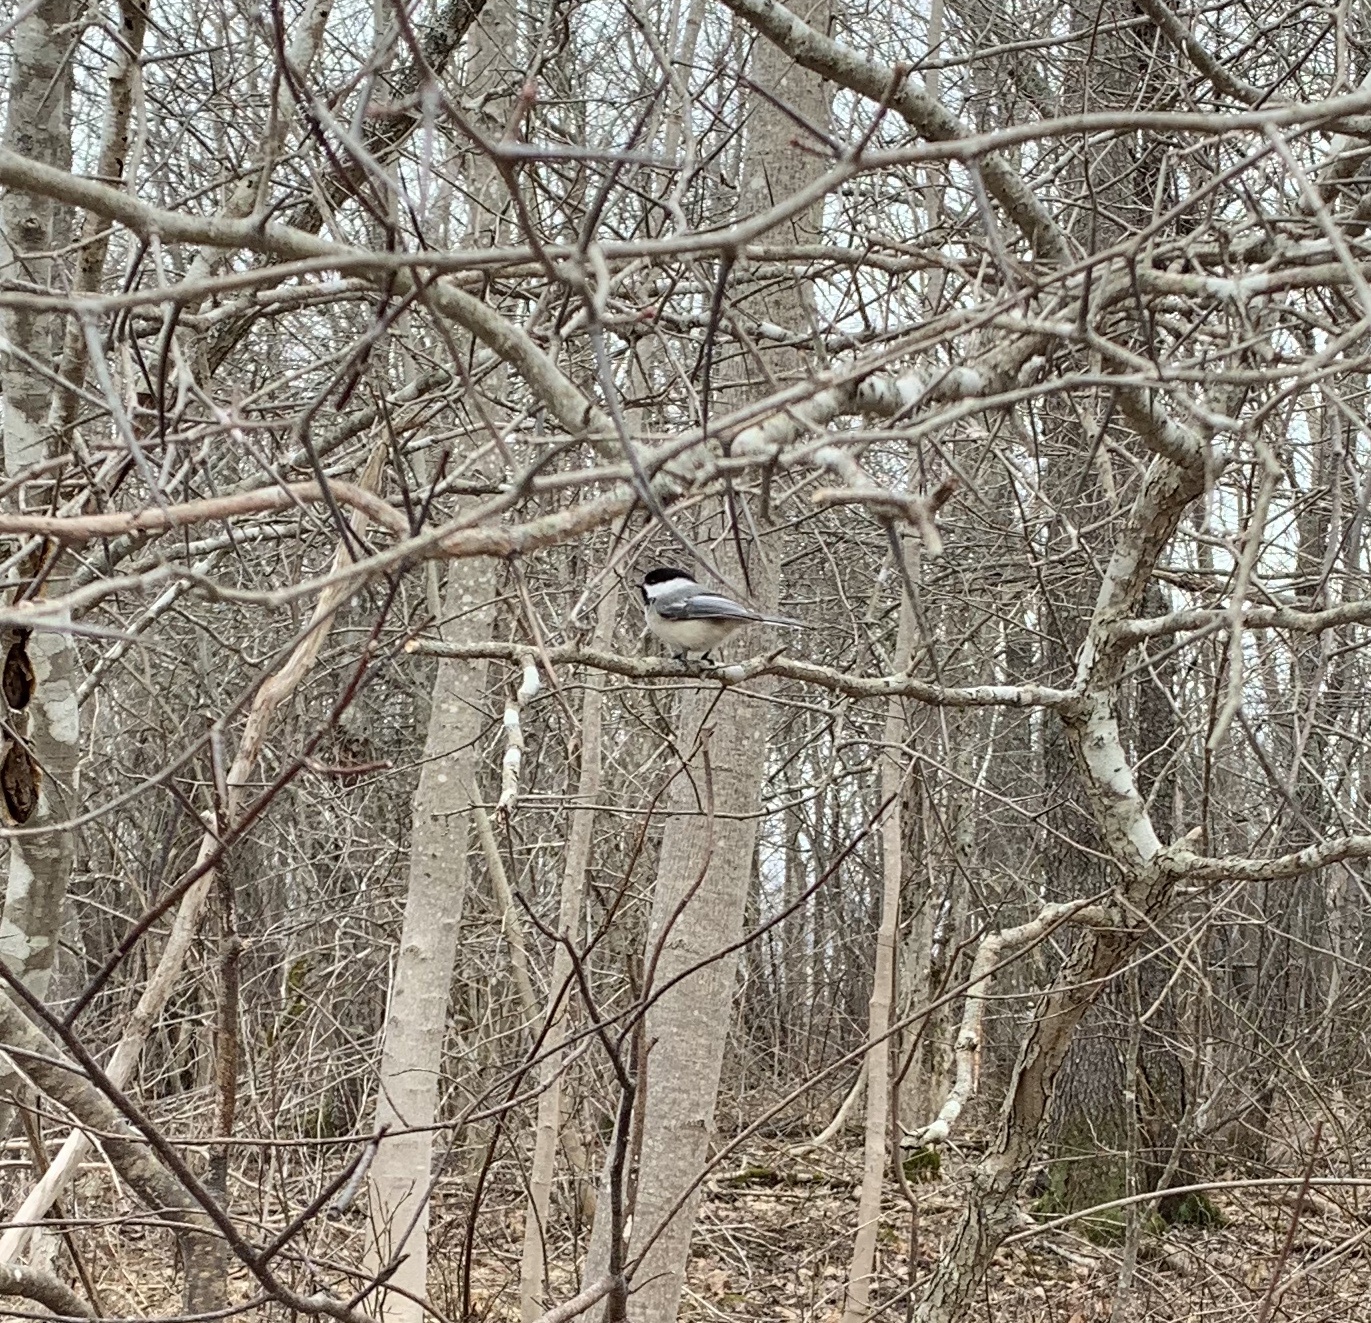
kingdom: Animalia
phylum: Chordata
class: Aves
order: Passeriformes
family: Paridae
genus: Poecile
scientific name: Poecile atricapillus
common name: Black-capped chickadee
